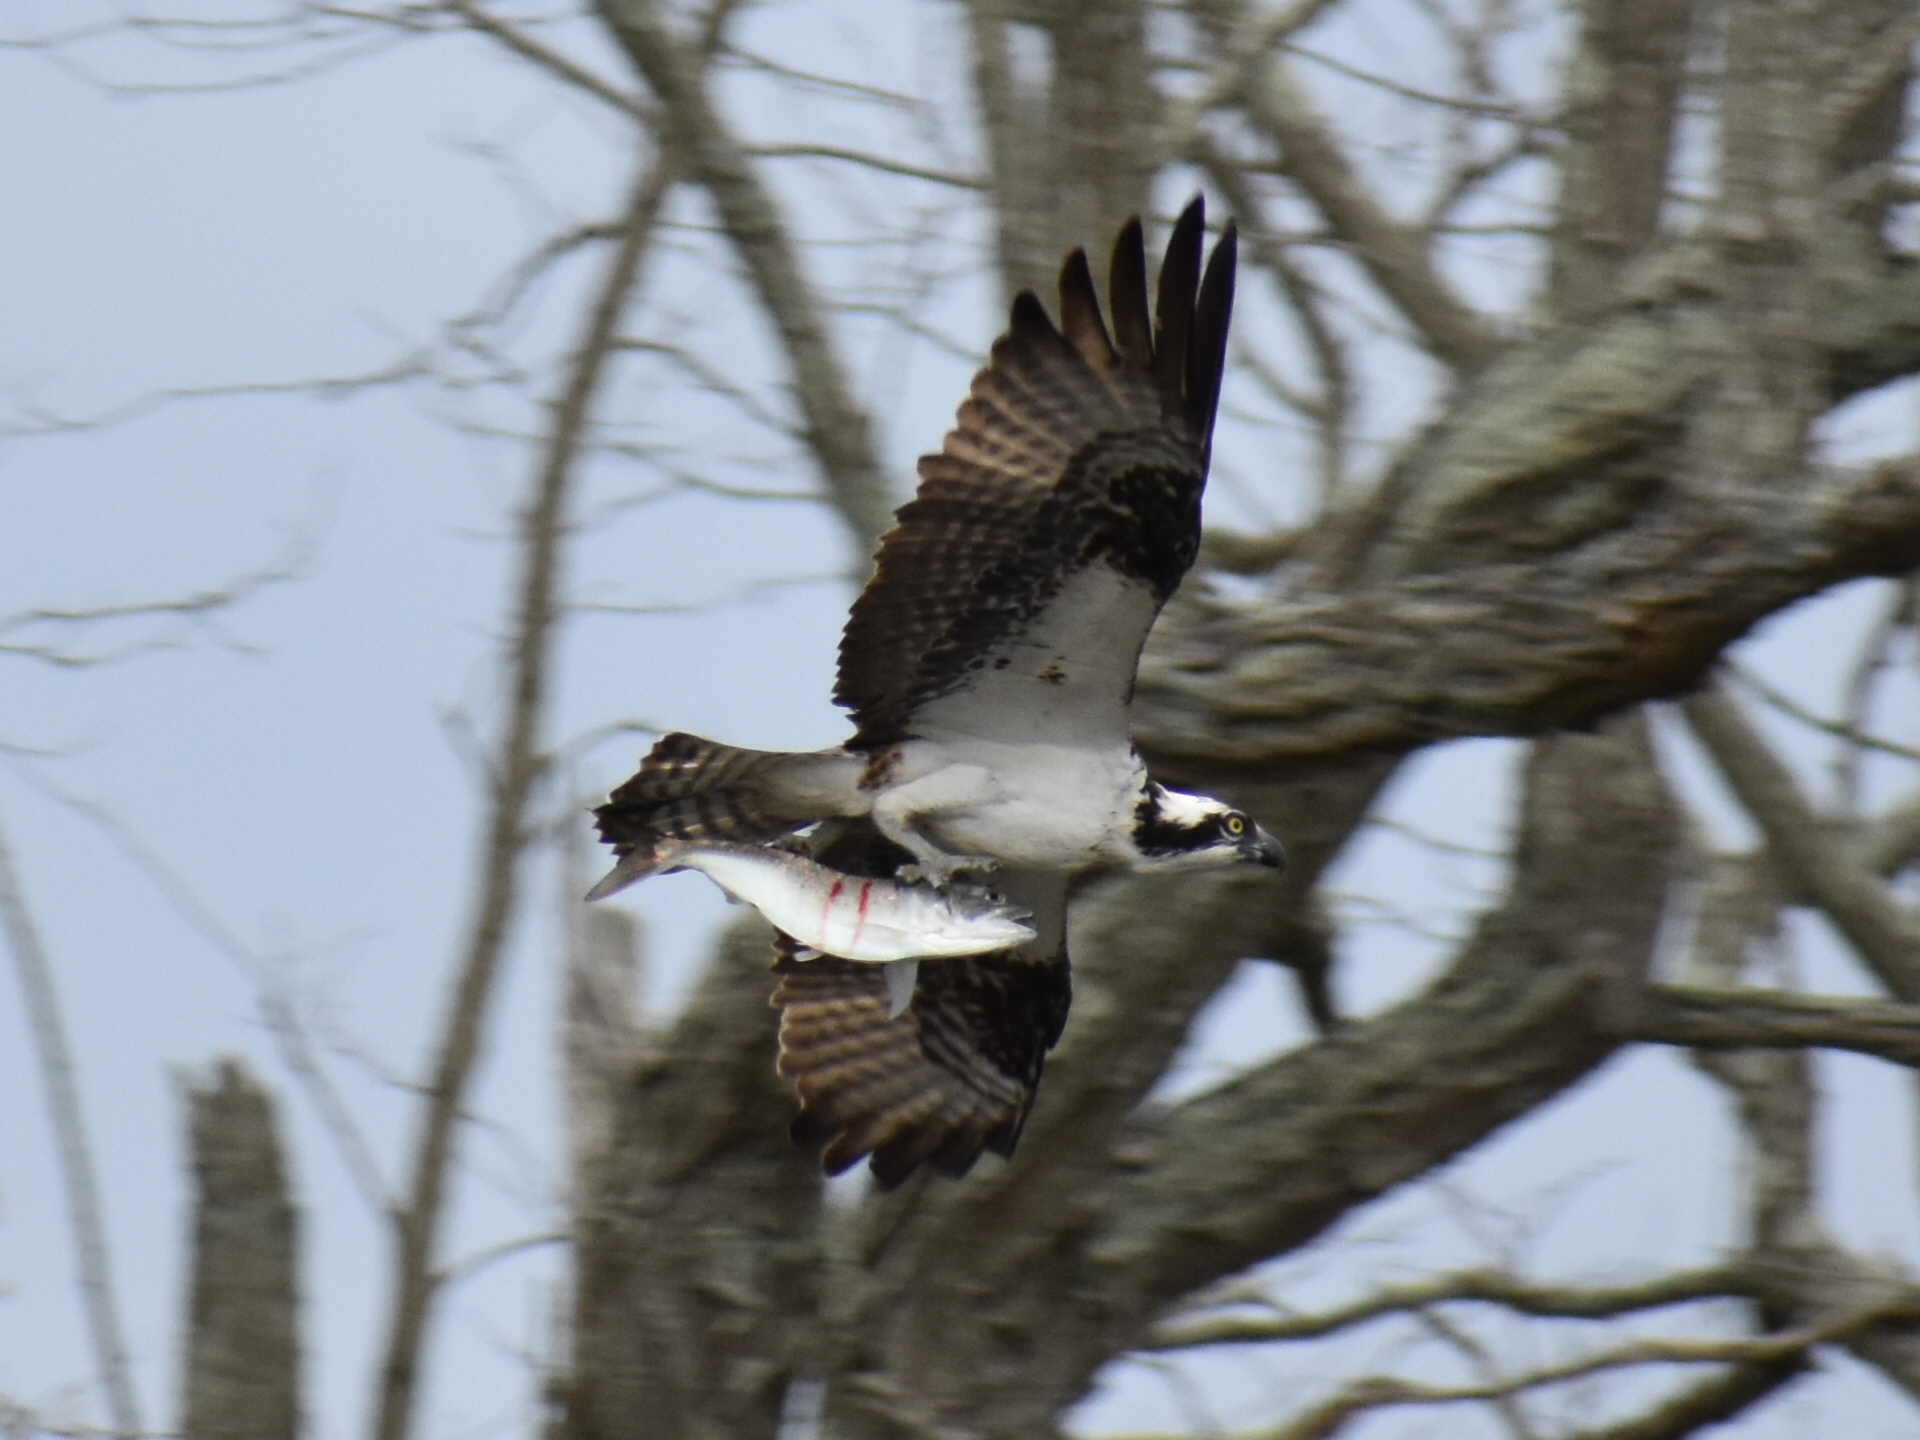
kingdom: Animalia
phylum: Chordata
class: Aves
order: Accipitriformes
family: Pandionidae
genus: Pandion
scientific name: Pandion haliaetus
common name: Osprey
